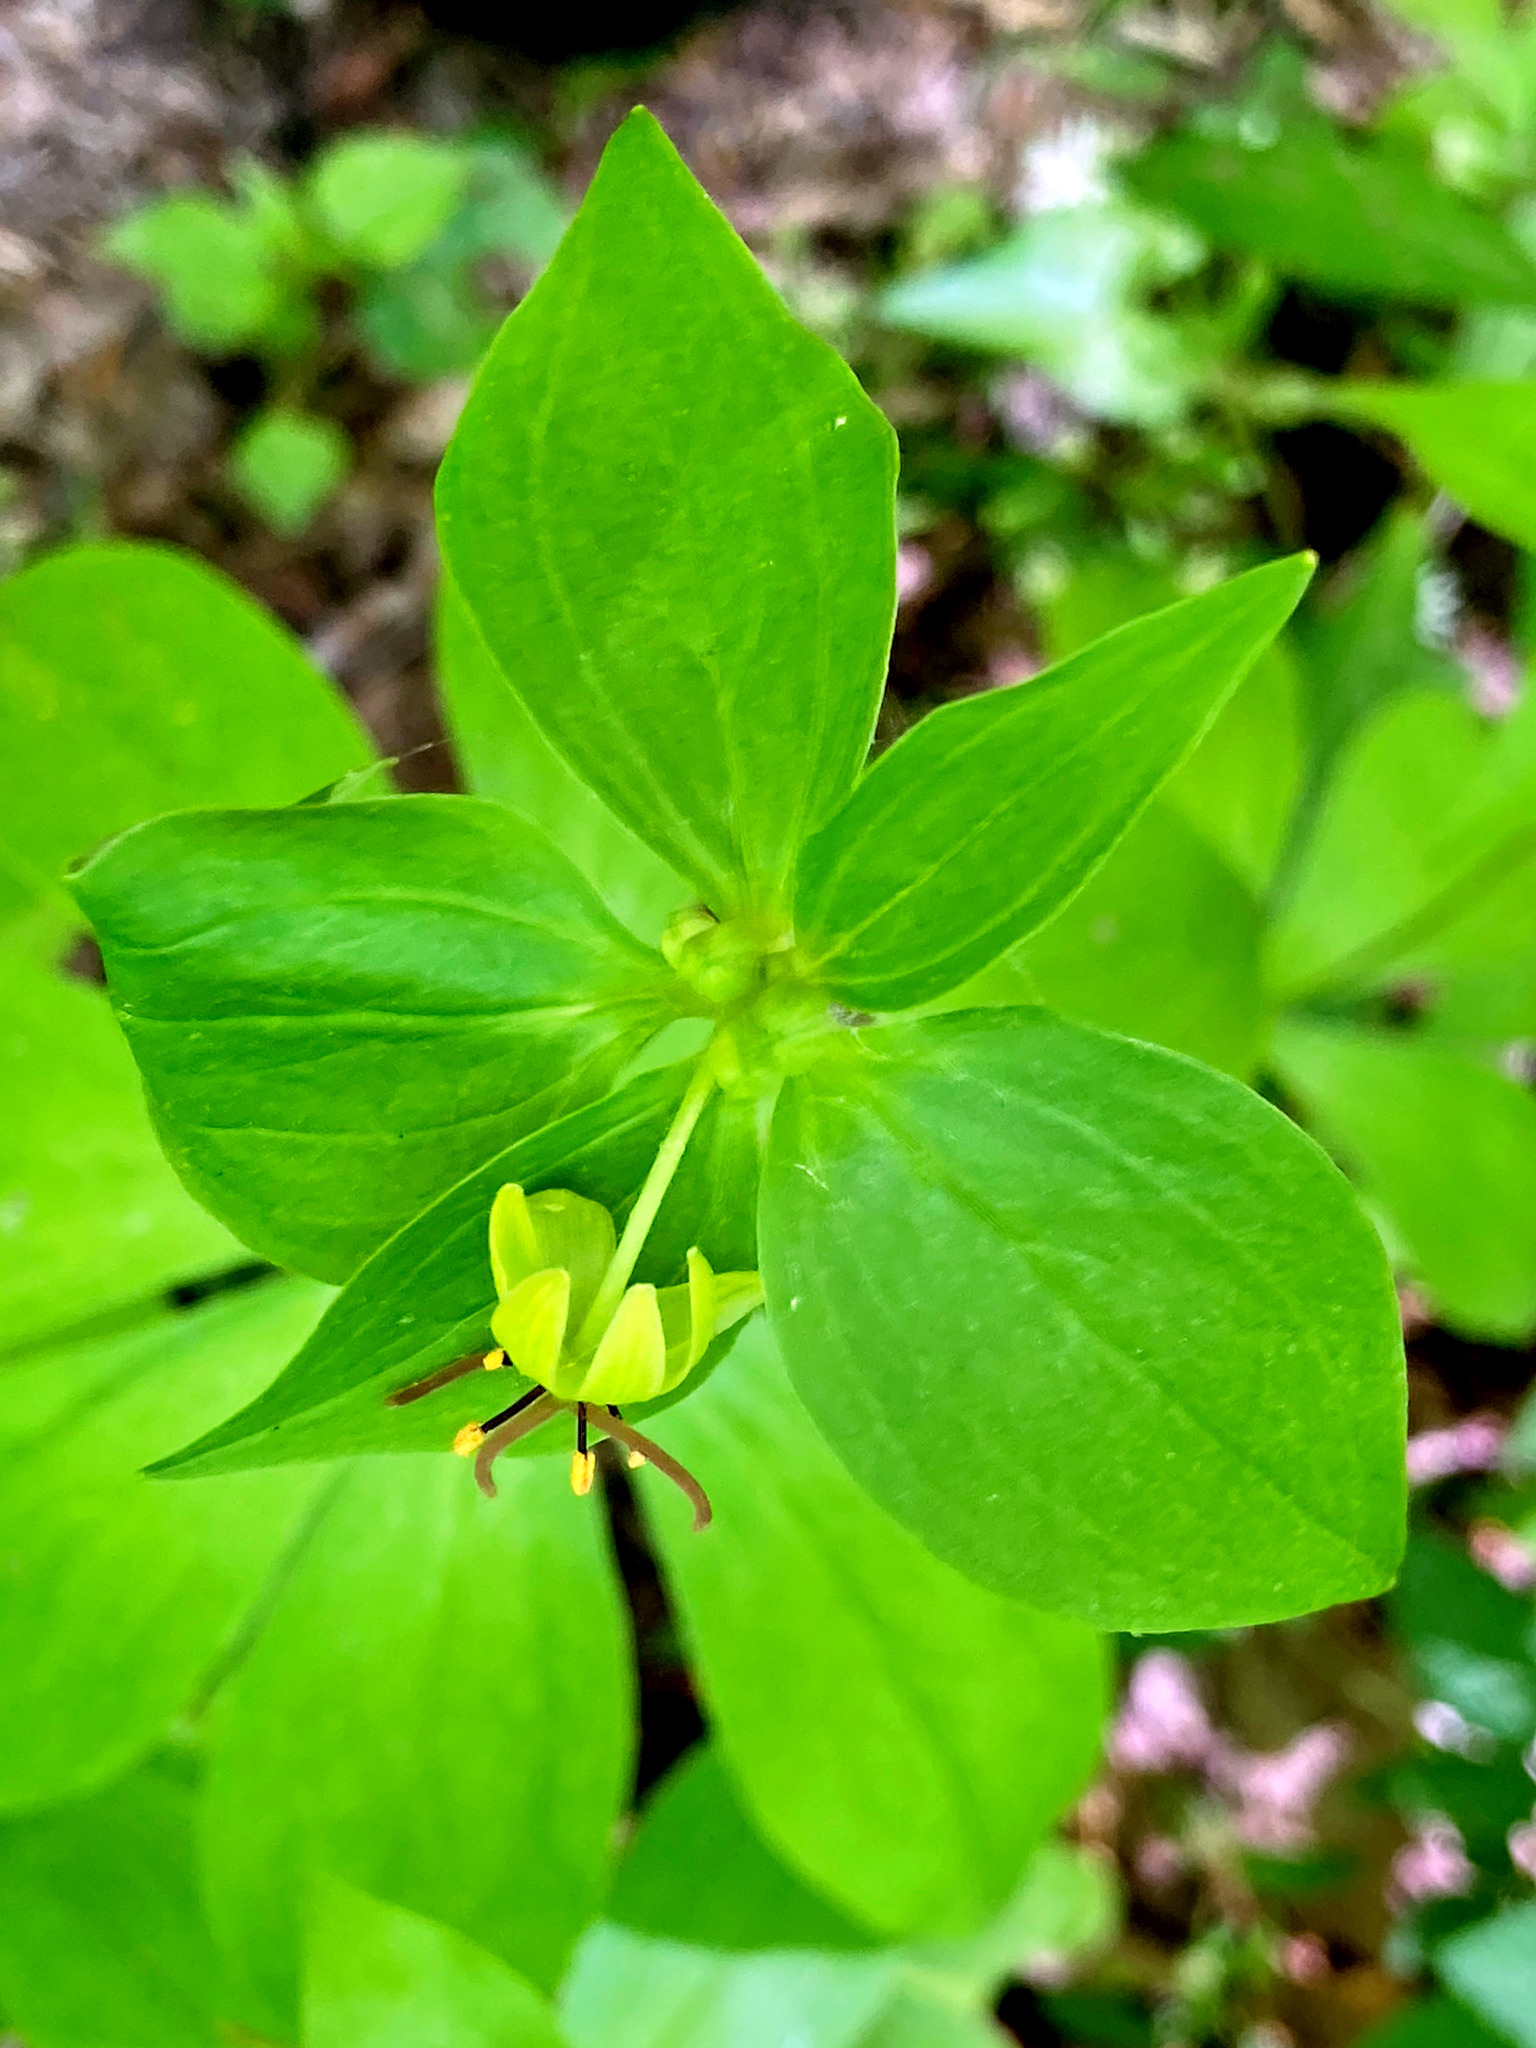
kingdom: Plantae
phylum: Tracheophyta
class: Liliopsida
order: Liliales
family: Liliaceae
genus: Medeola
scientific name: Medeola virginiana
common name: Indian cucumber-root
